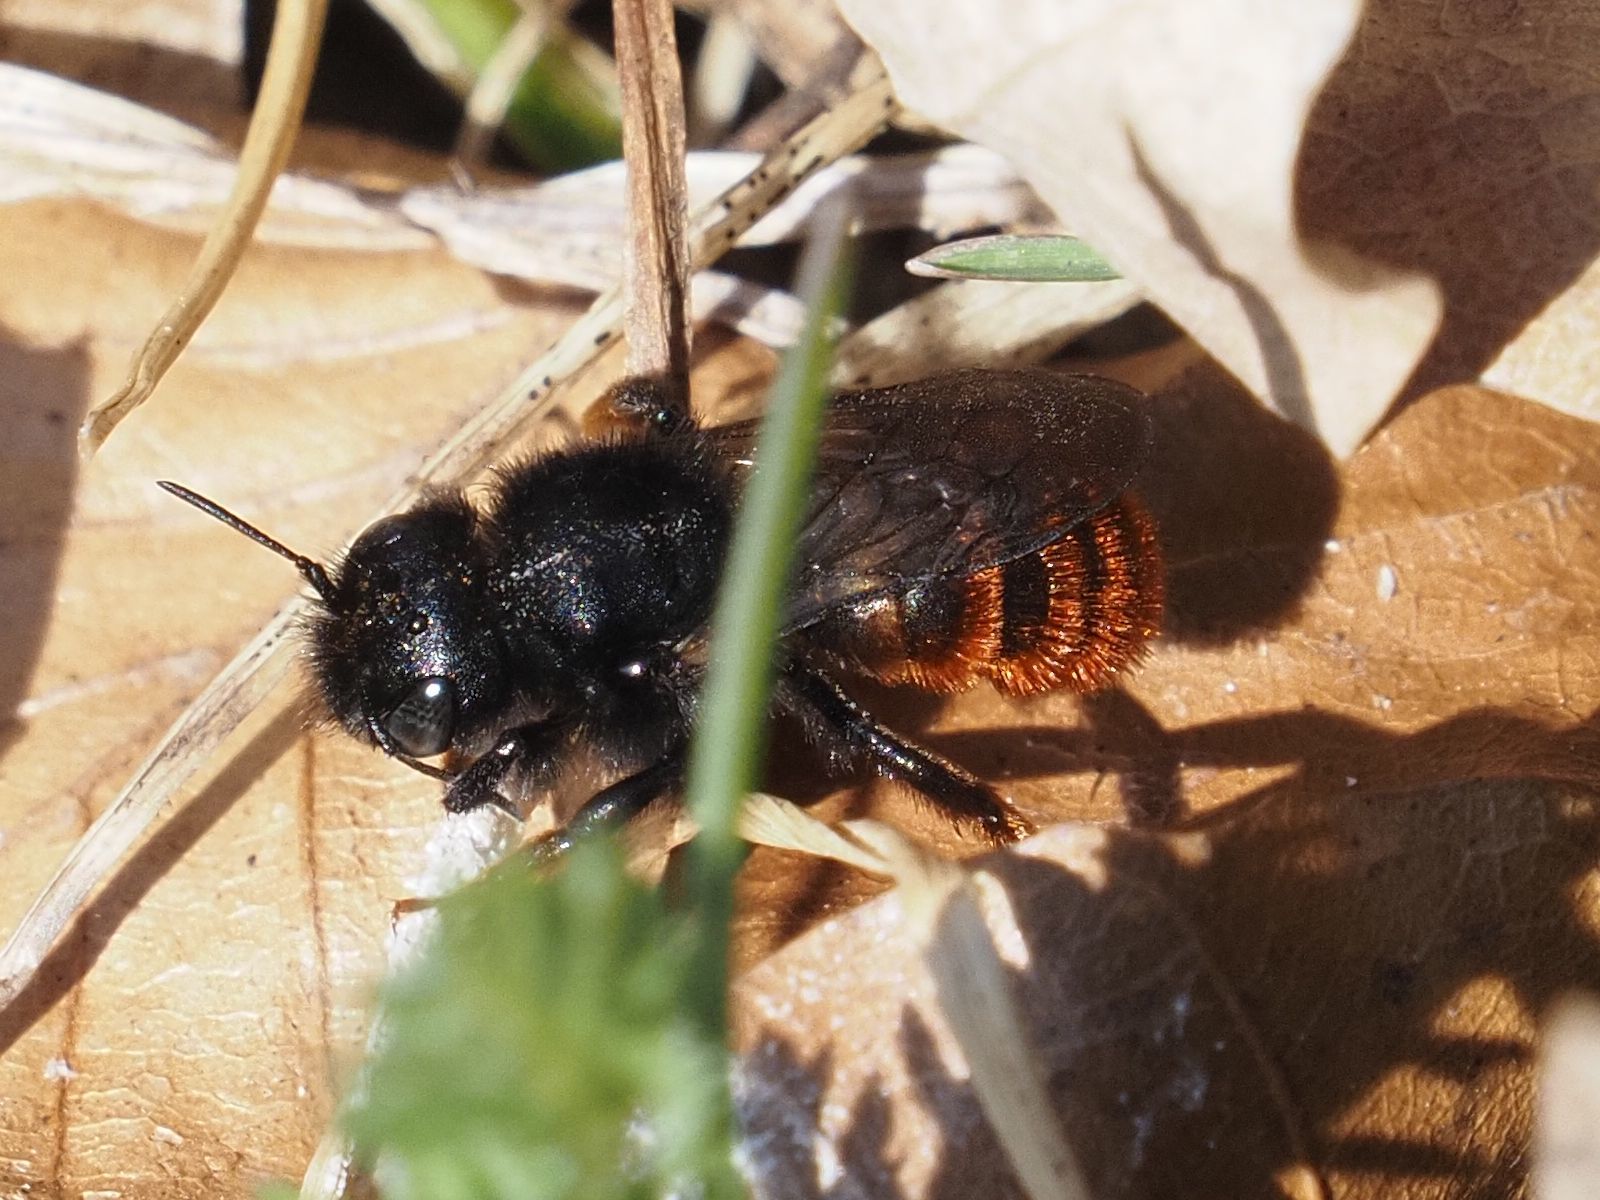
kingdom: Animalia
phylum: Arthropoda
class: Insecta
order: Hymenoptera
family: Megachilidae
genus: Osmia
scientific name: Osmia bicolor
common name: Red-tailed mason bee
